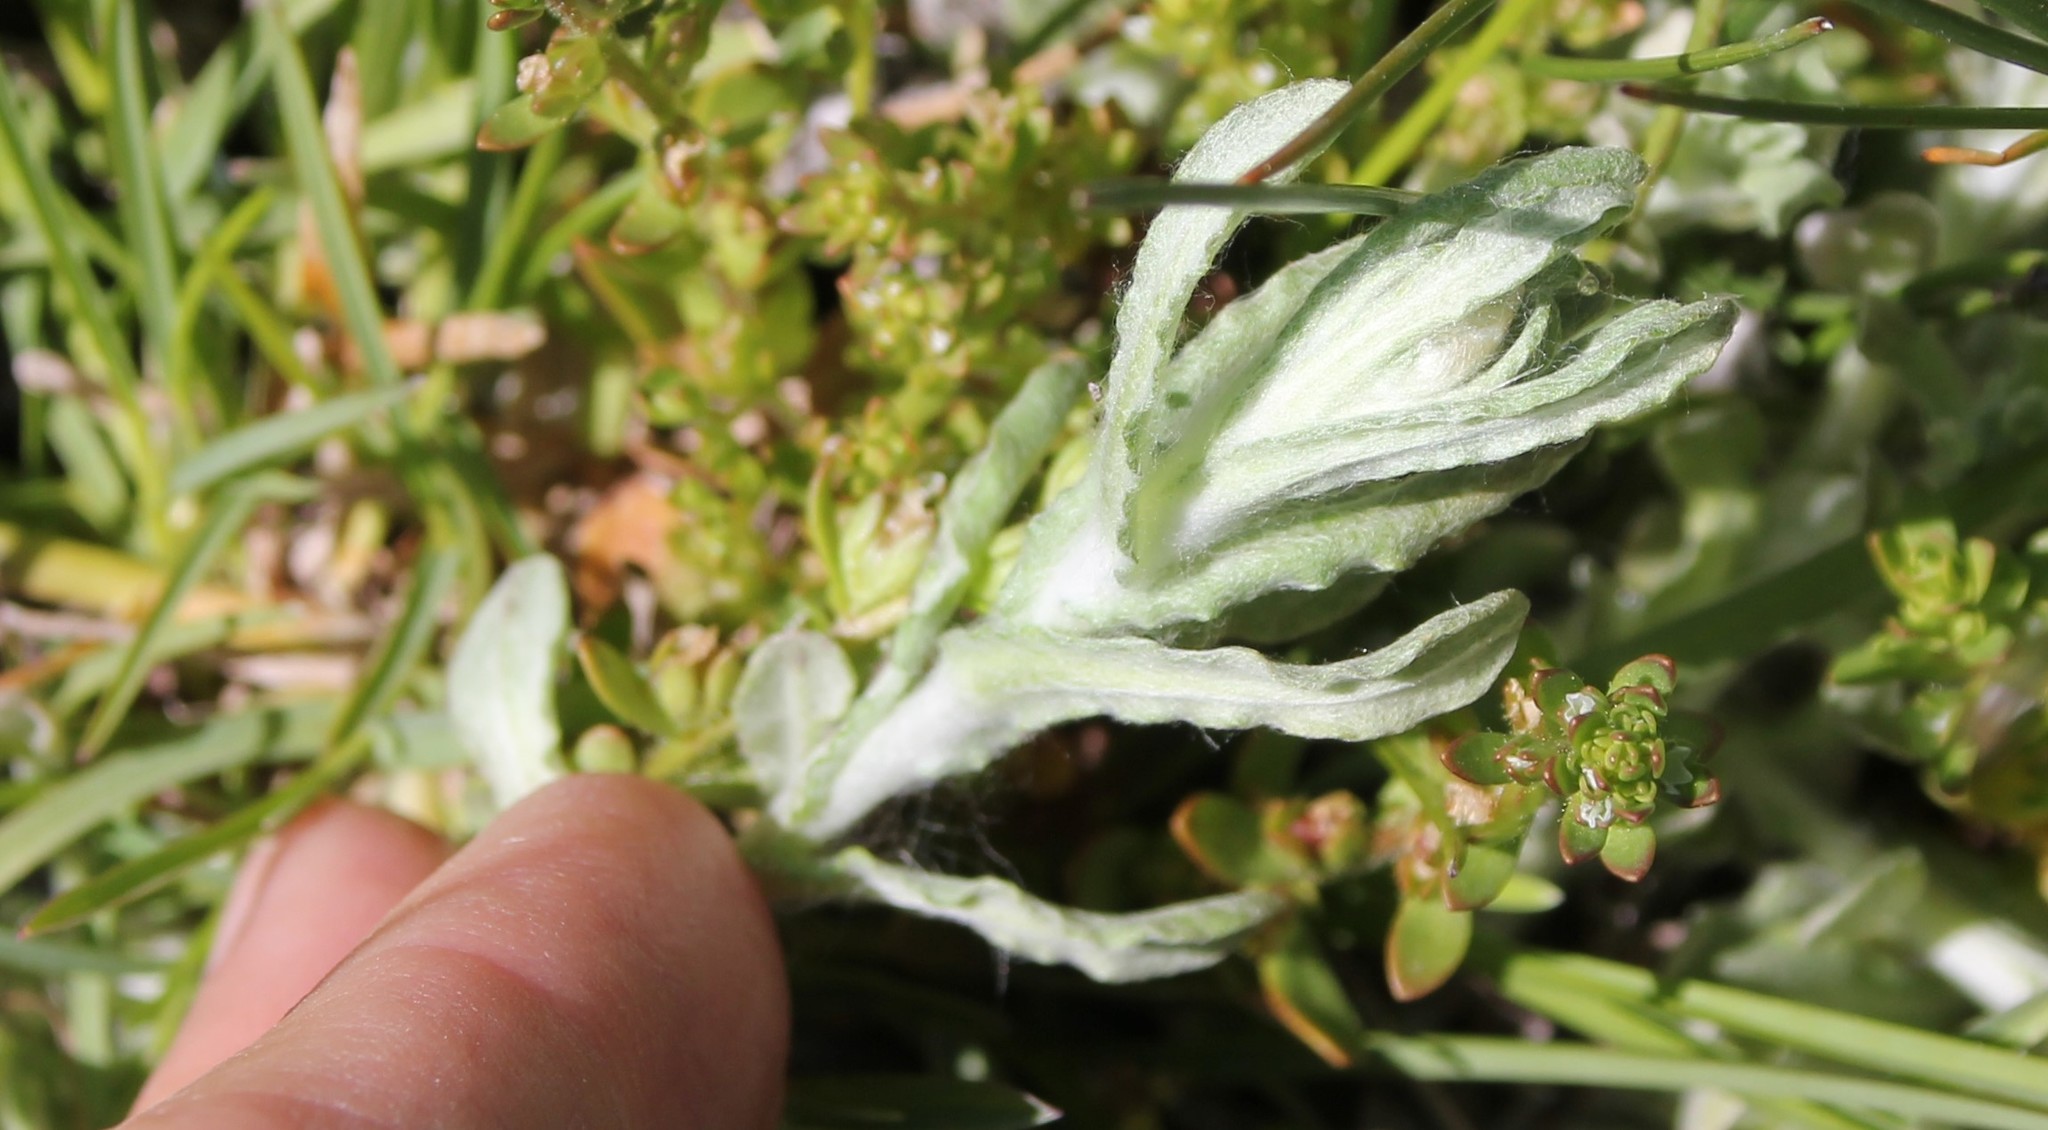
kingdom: Plantae
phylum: Tracheophyta
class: Magnoliopsida
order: Asterales
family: Asteraceae
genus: Helichrysum
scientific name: Helichrysum luteoalbum
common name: Daisy
